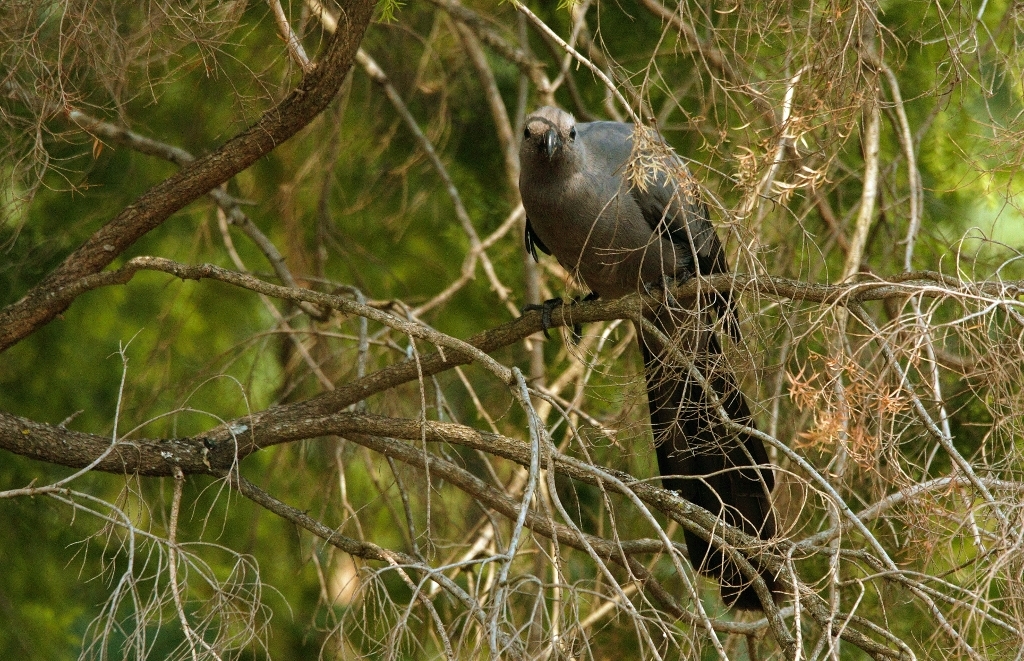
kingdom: Animalia
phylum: Chordata
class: Aves
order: Musophagiformes
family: Musophagidae
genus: Corythaixoides
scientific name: Corythaixoides concolor
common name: Grey go-away-bird
